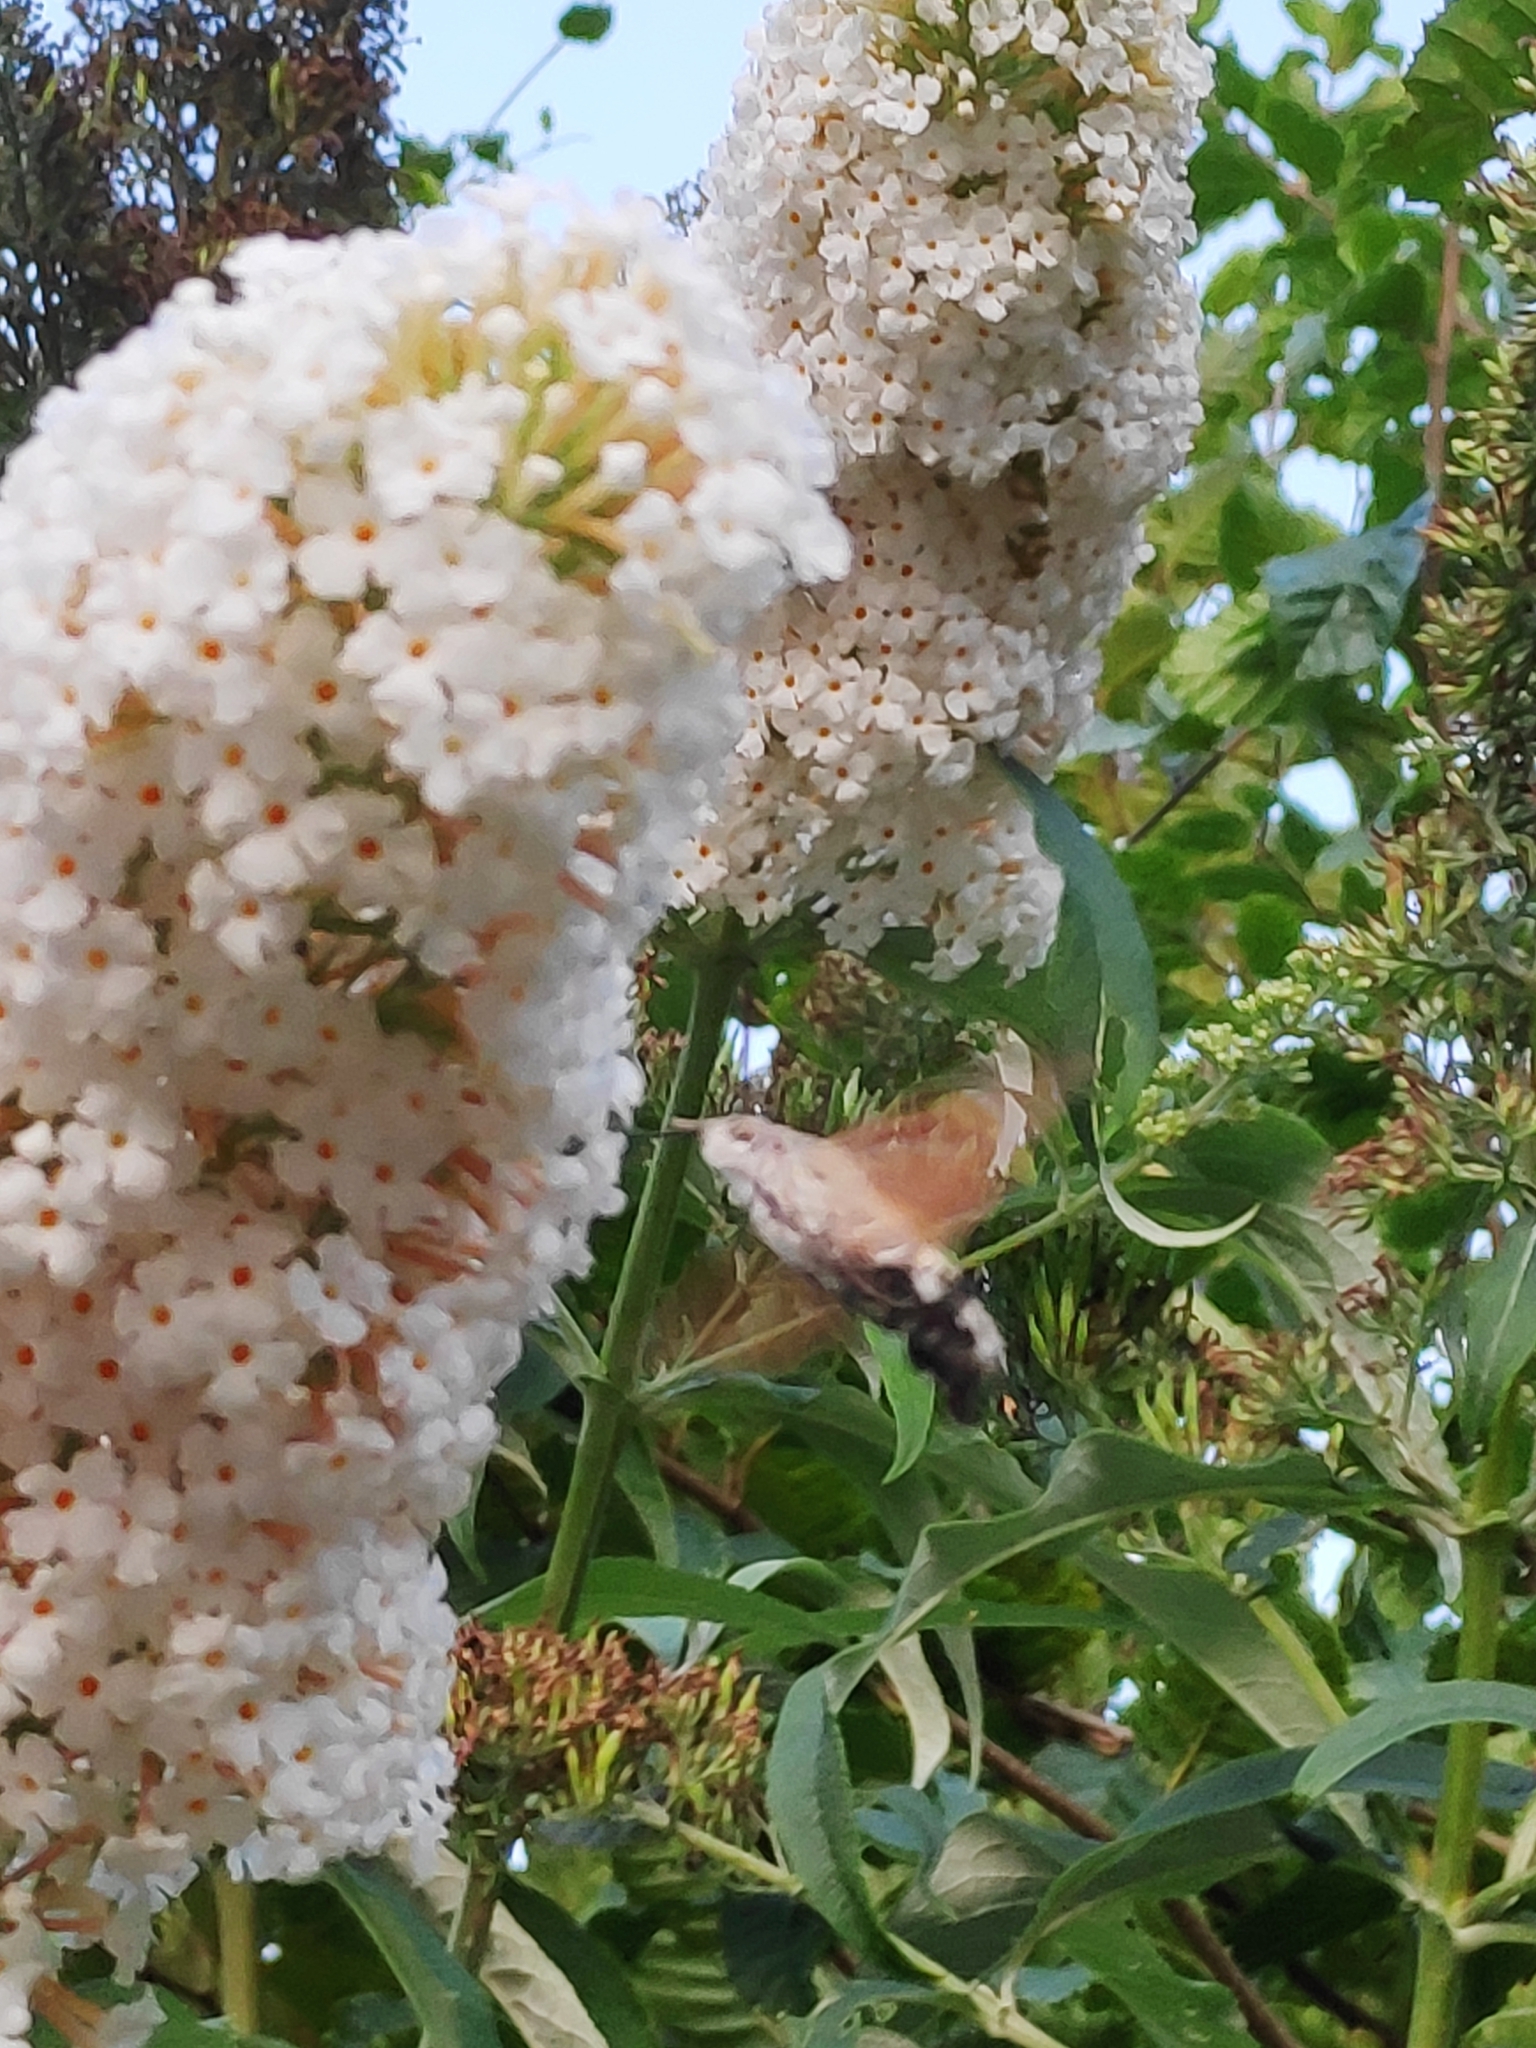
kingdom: Animalia
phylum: Arthropoda
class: Insecta
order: Lepidoptera
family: Sphingidae
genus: Macroglossum
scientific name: Macroglossum stellatarum
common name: Humming-bird hawk-moth
